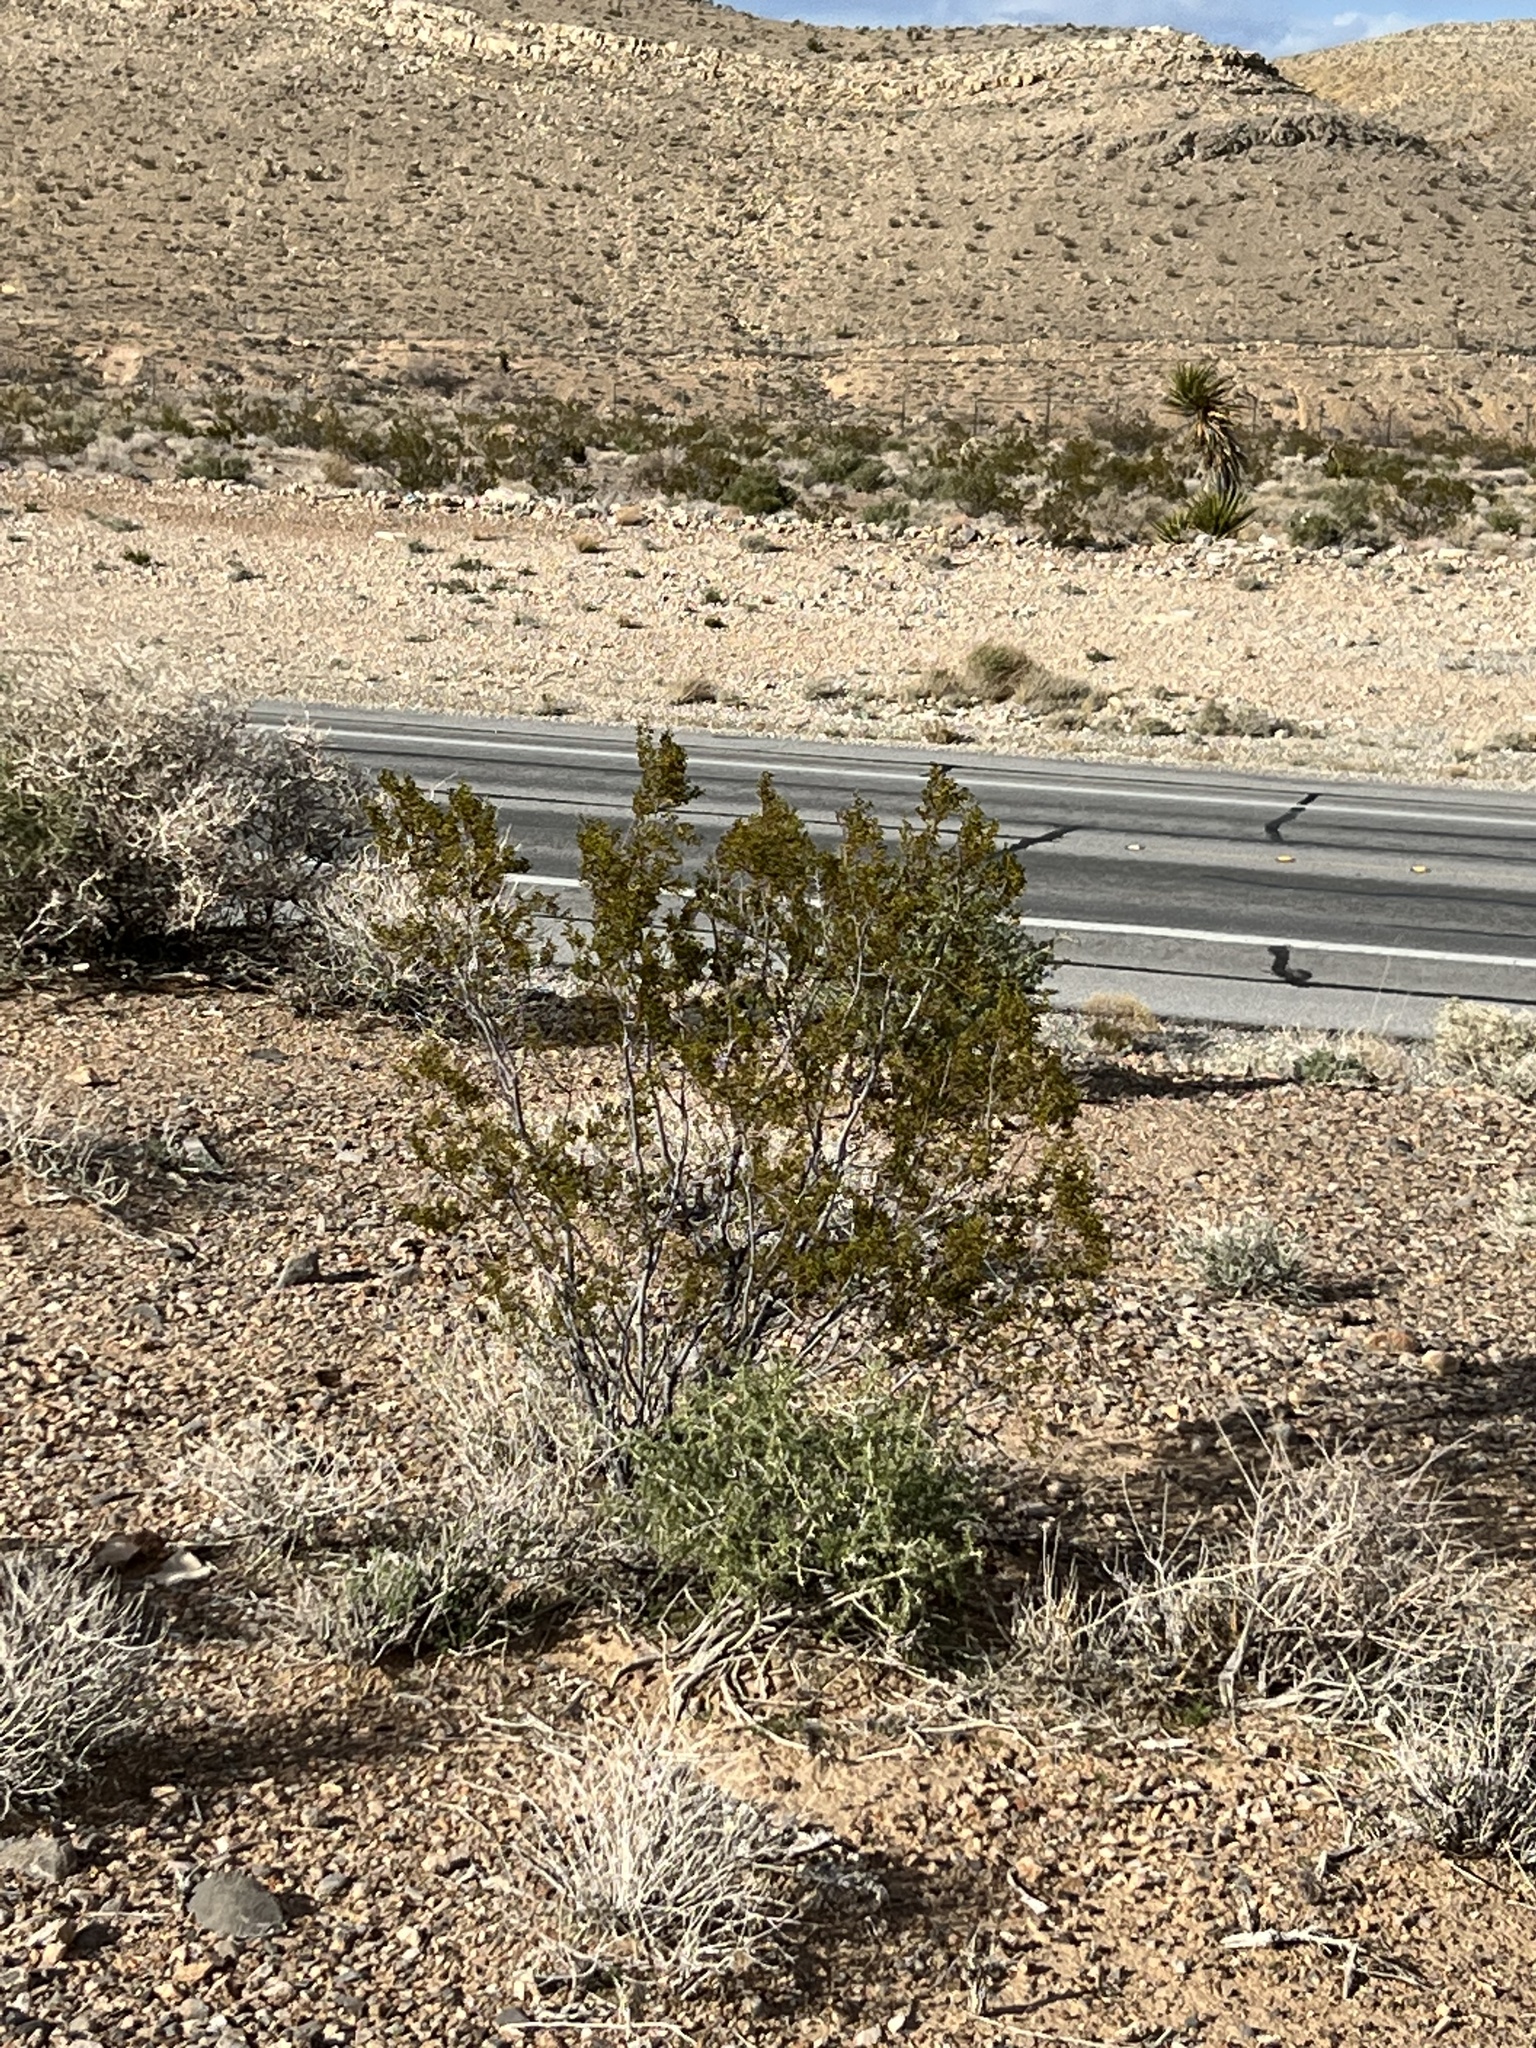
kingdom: Plantae
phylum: Tracheophyta
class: Magnoliopsida
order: Zygophyllales
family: Zygophyllaceae
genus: Larrea
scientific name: Larrea tridentata
